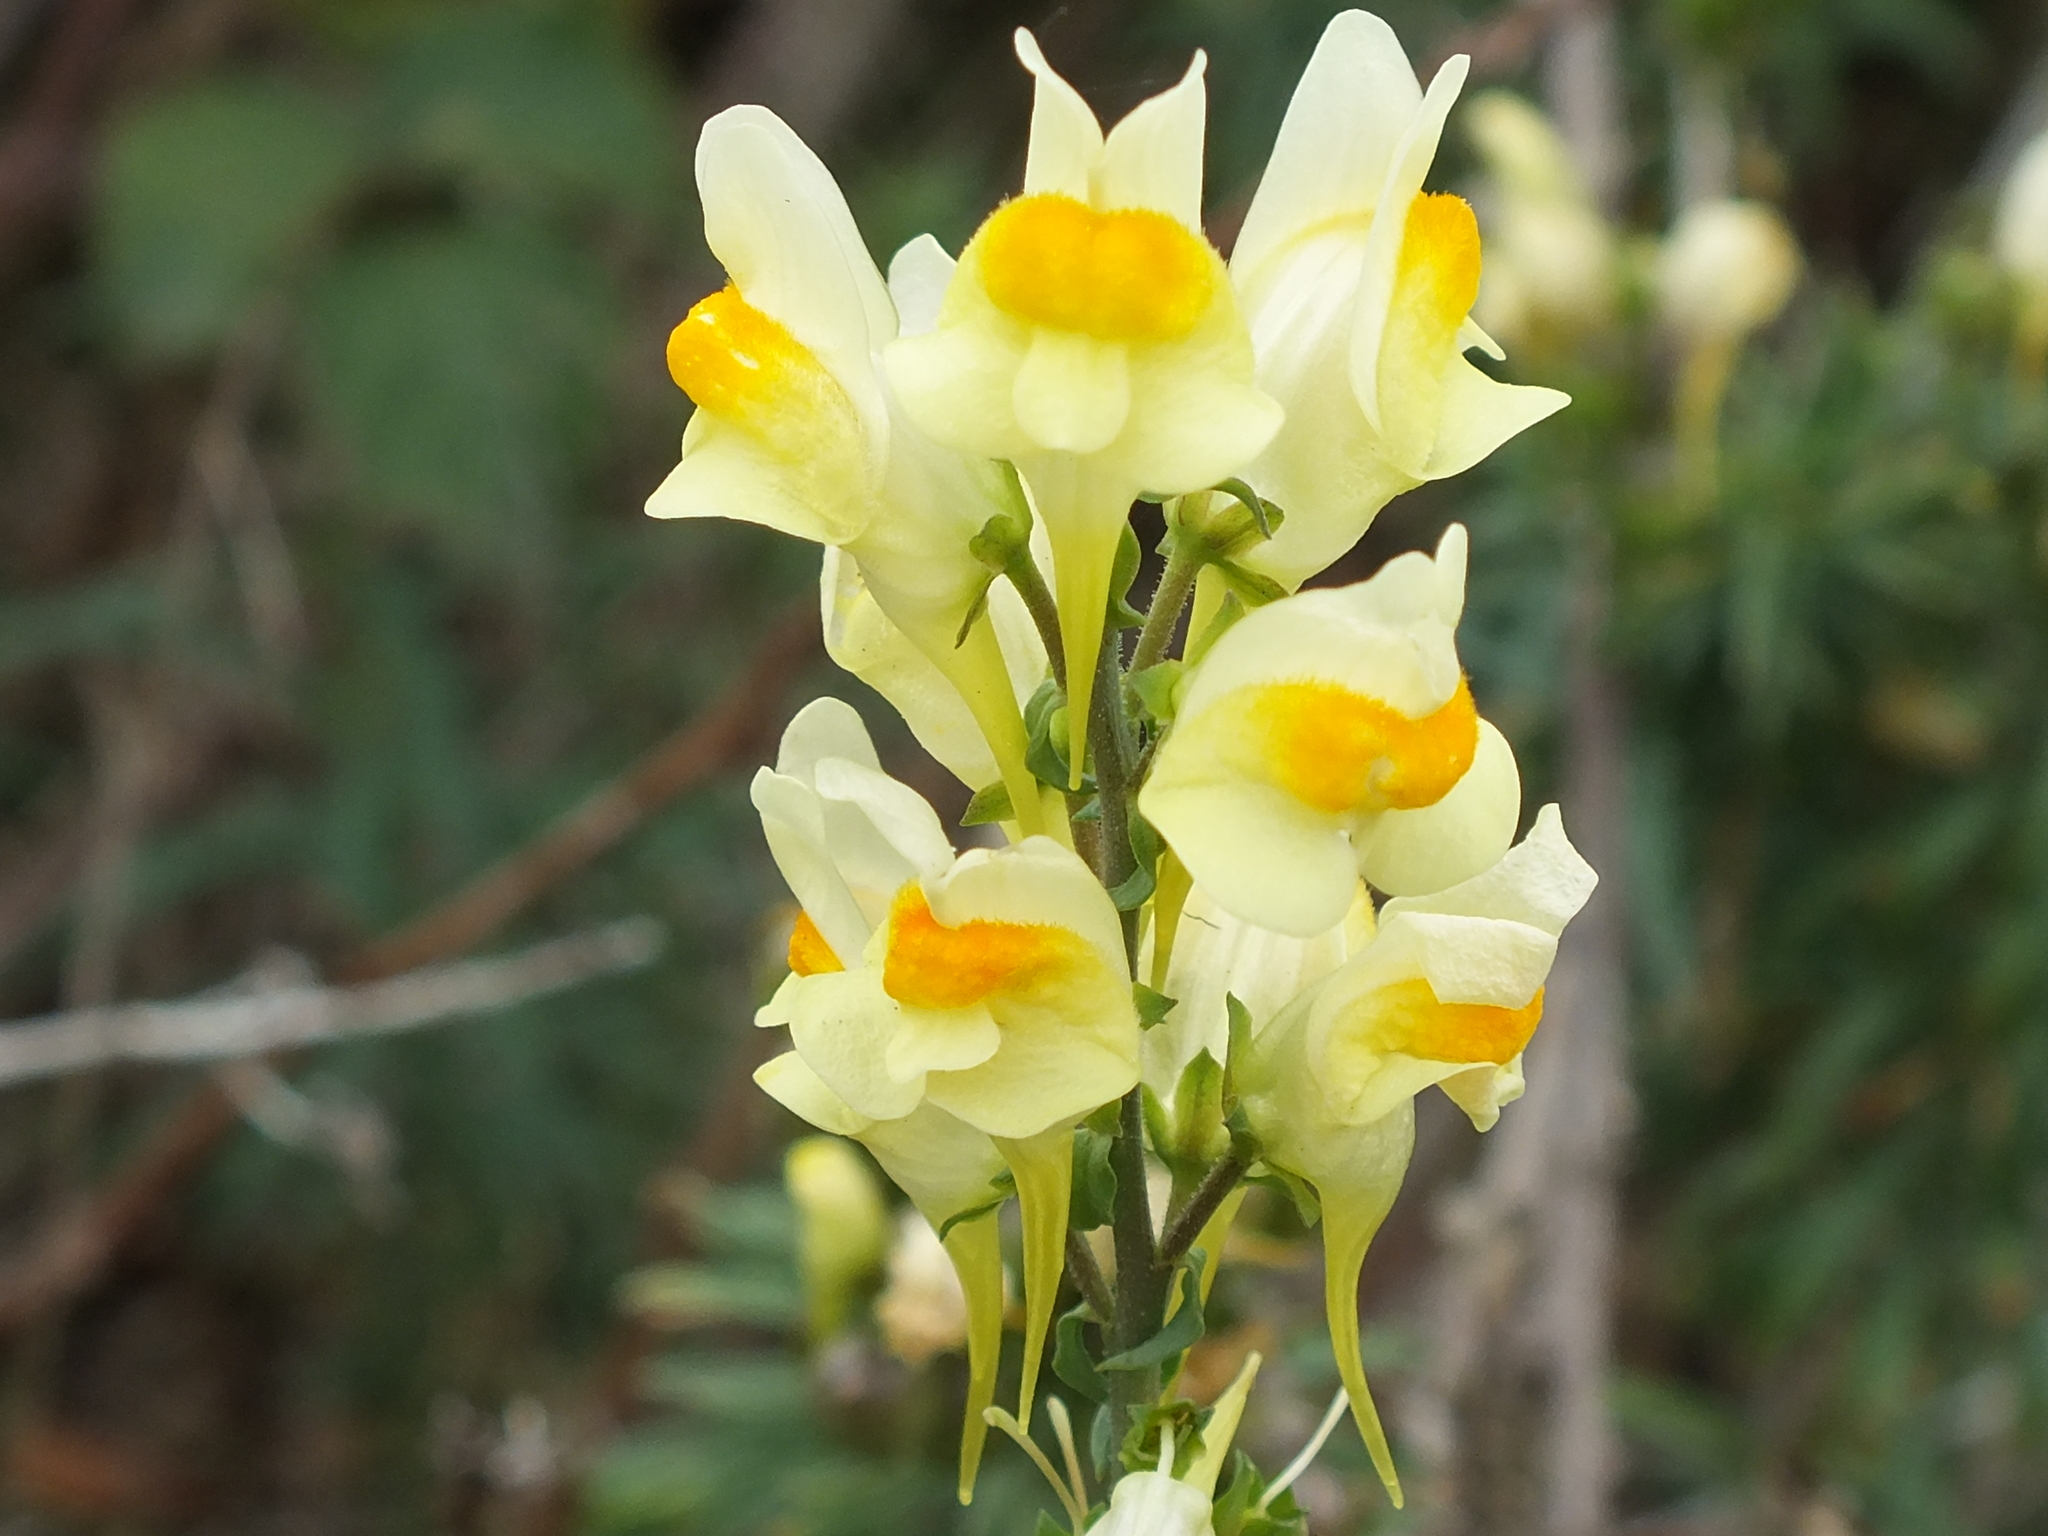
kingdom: Plantae
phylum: Tracheophyta
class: Magnoliopsida
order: Lamiales
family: Plantaginaceae
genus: Linaria
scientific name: Linaria vulgaris
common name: Butter and eggs
